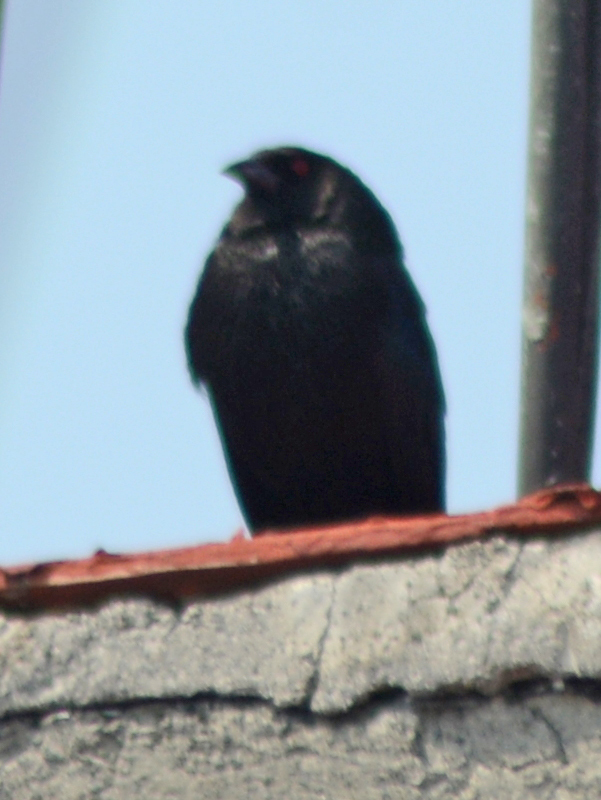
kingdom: Animalia
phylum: Chordata
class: Aves
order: Passeriformes
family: Icteridae
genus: Molothrus
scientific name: Molothrus aeneus
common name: Bronzed cowbird
